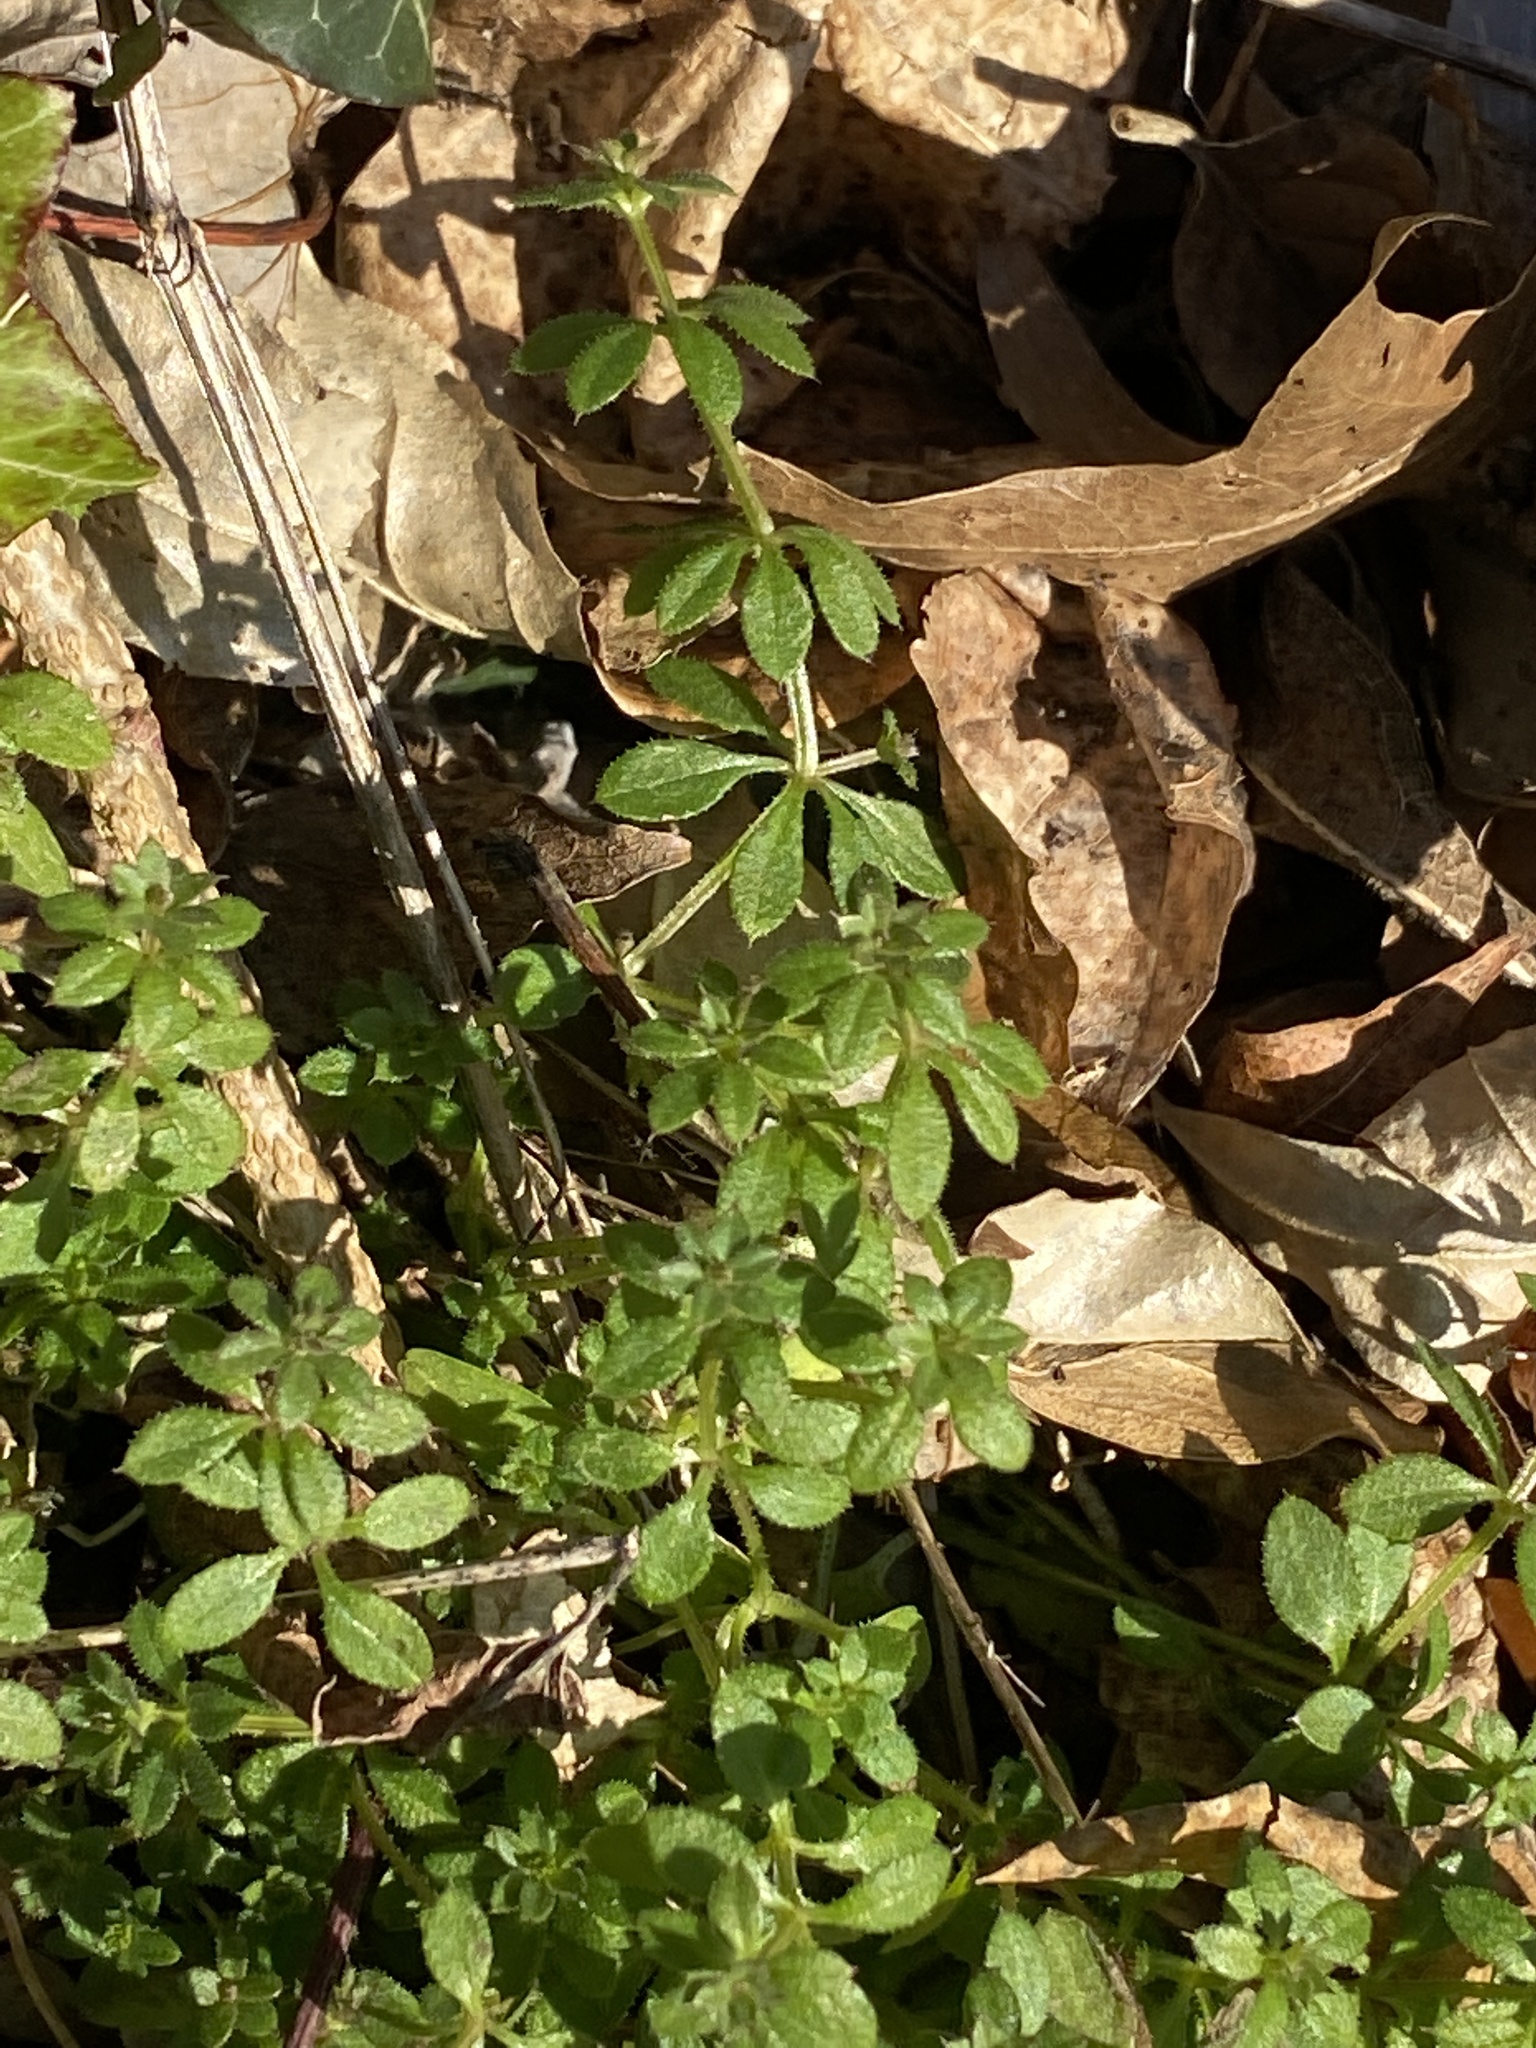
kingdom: Plantae
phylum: Tracheophyta
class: Magnoliopsida
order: Gentianales
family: Rubiaceae
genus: Galium
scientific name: Galium aparine
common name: Cleavers
